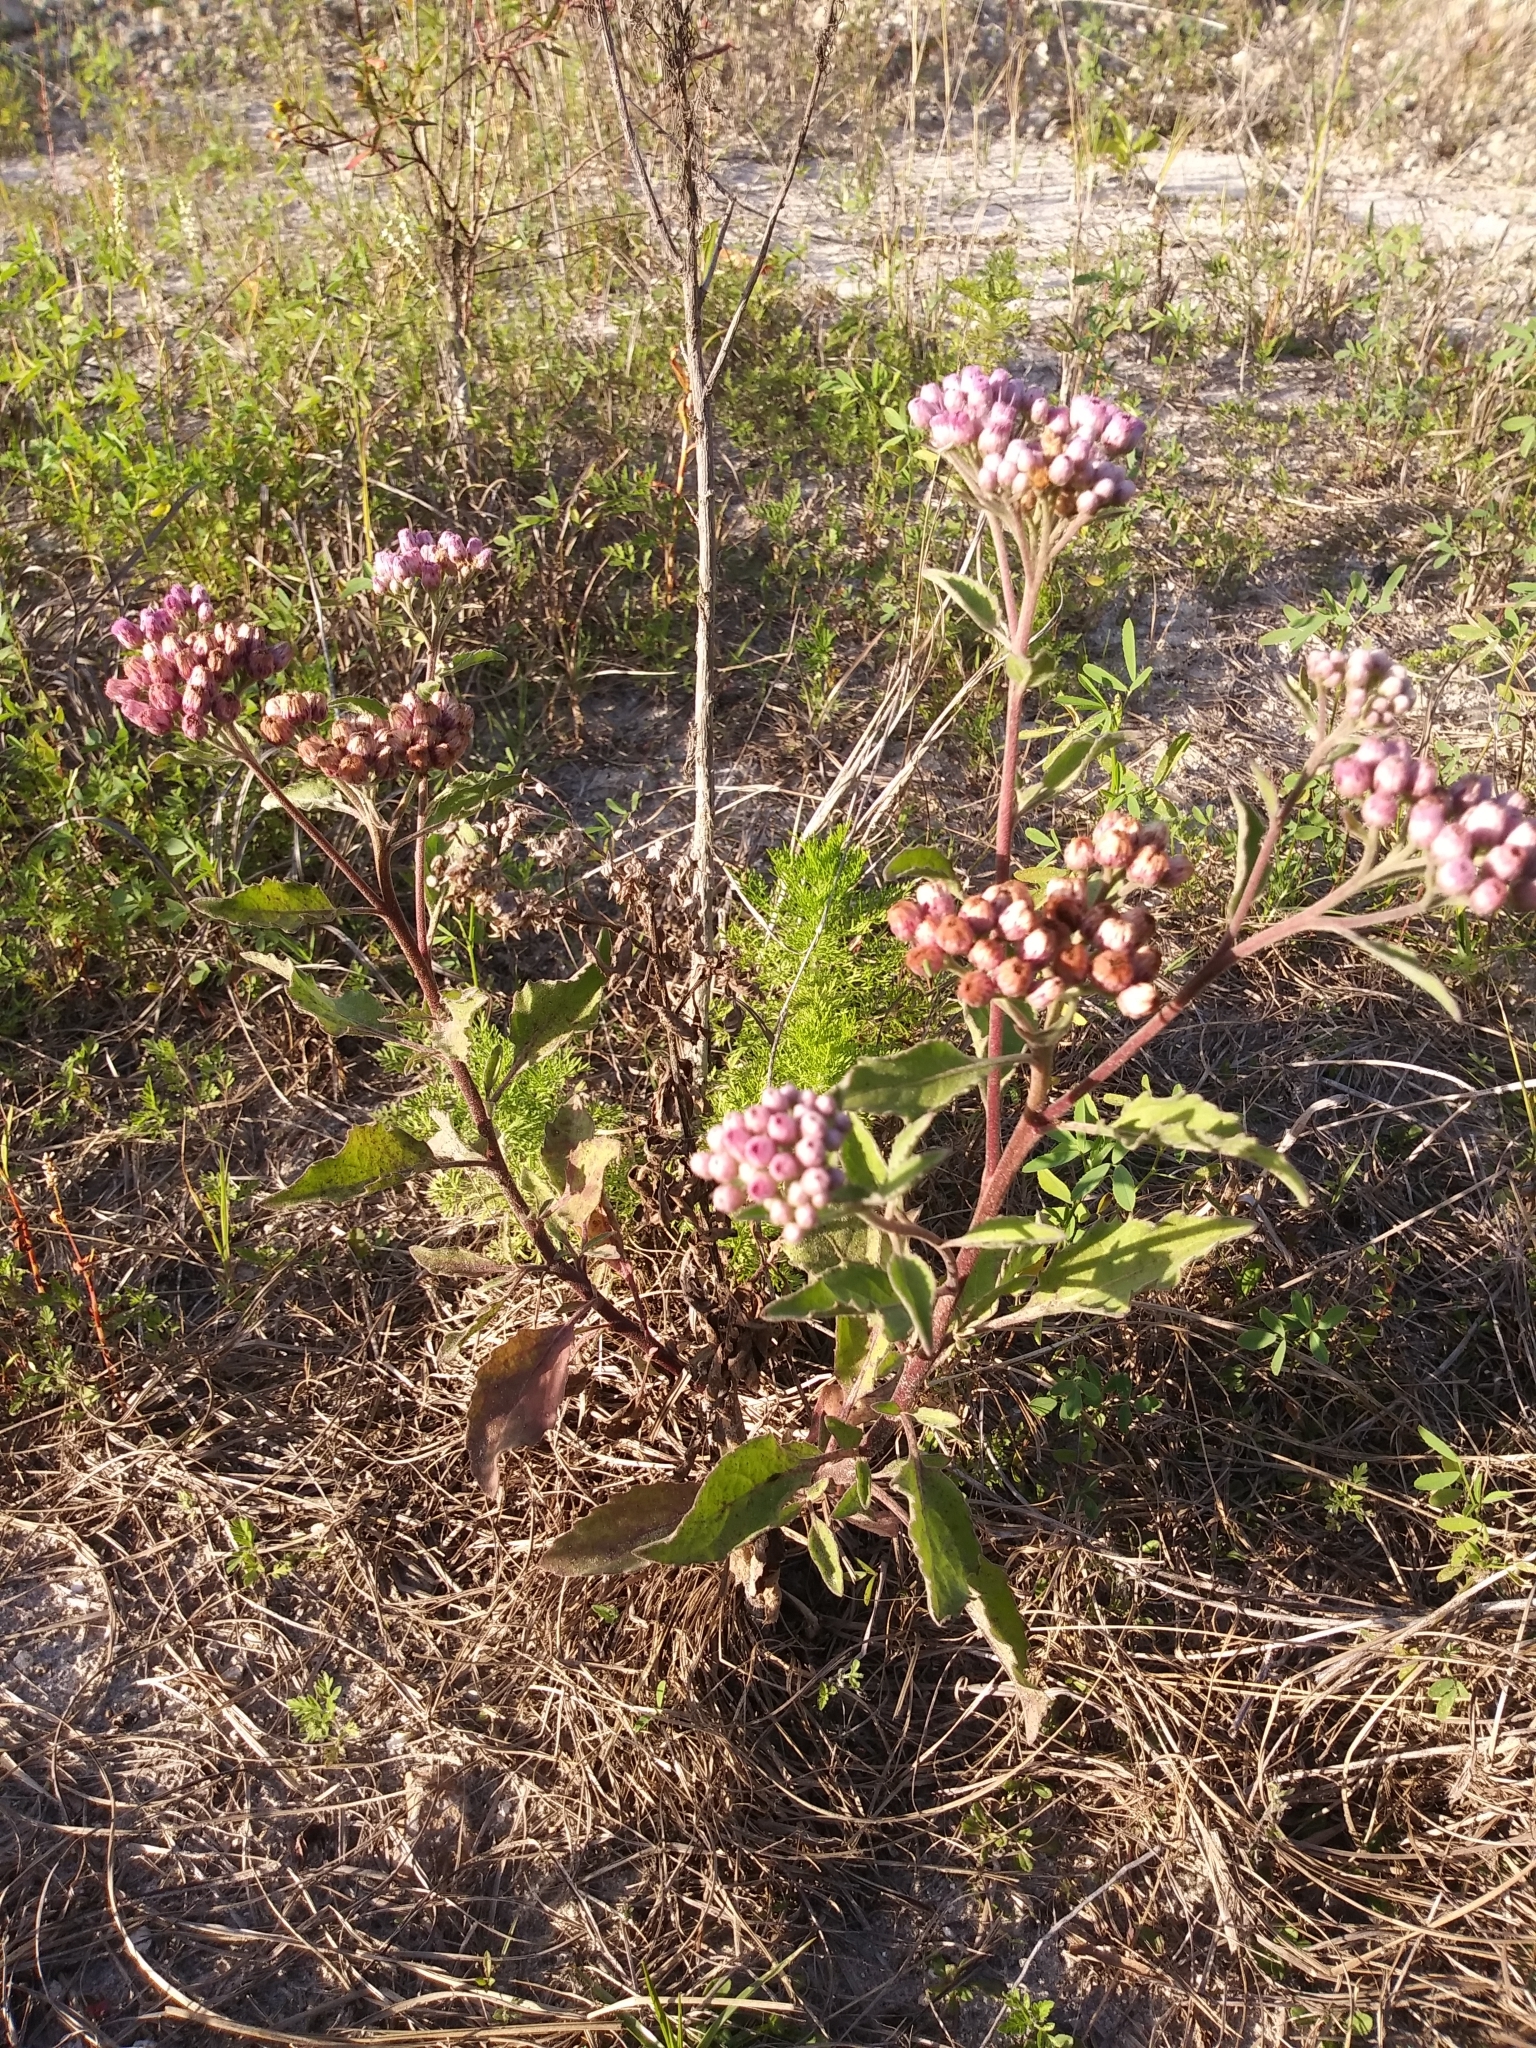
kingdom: Plantae
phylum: Tracheophyta
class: Magnoliopsida
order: Asterales
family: Asteraceae
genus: Pluchea
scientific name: Pluchea odorata
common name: Saltmarsh fleabane
